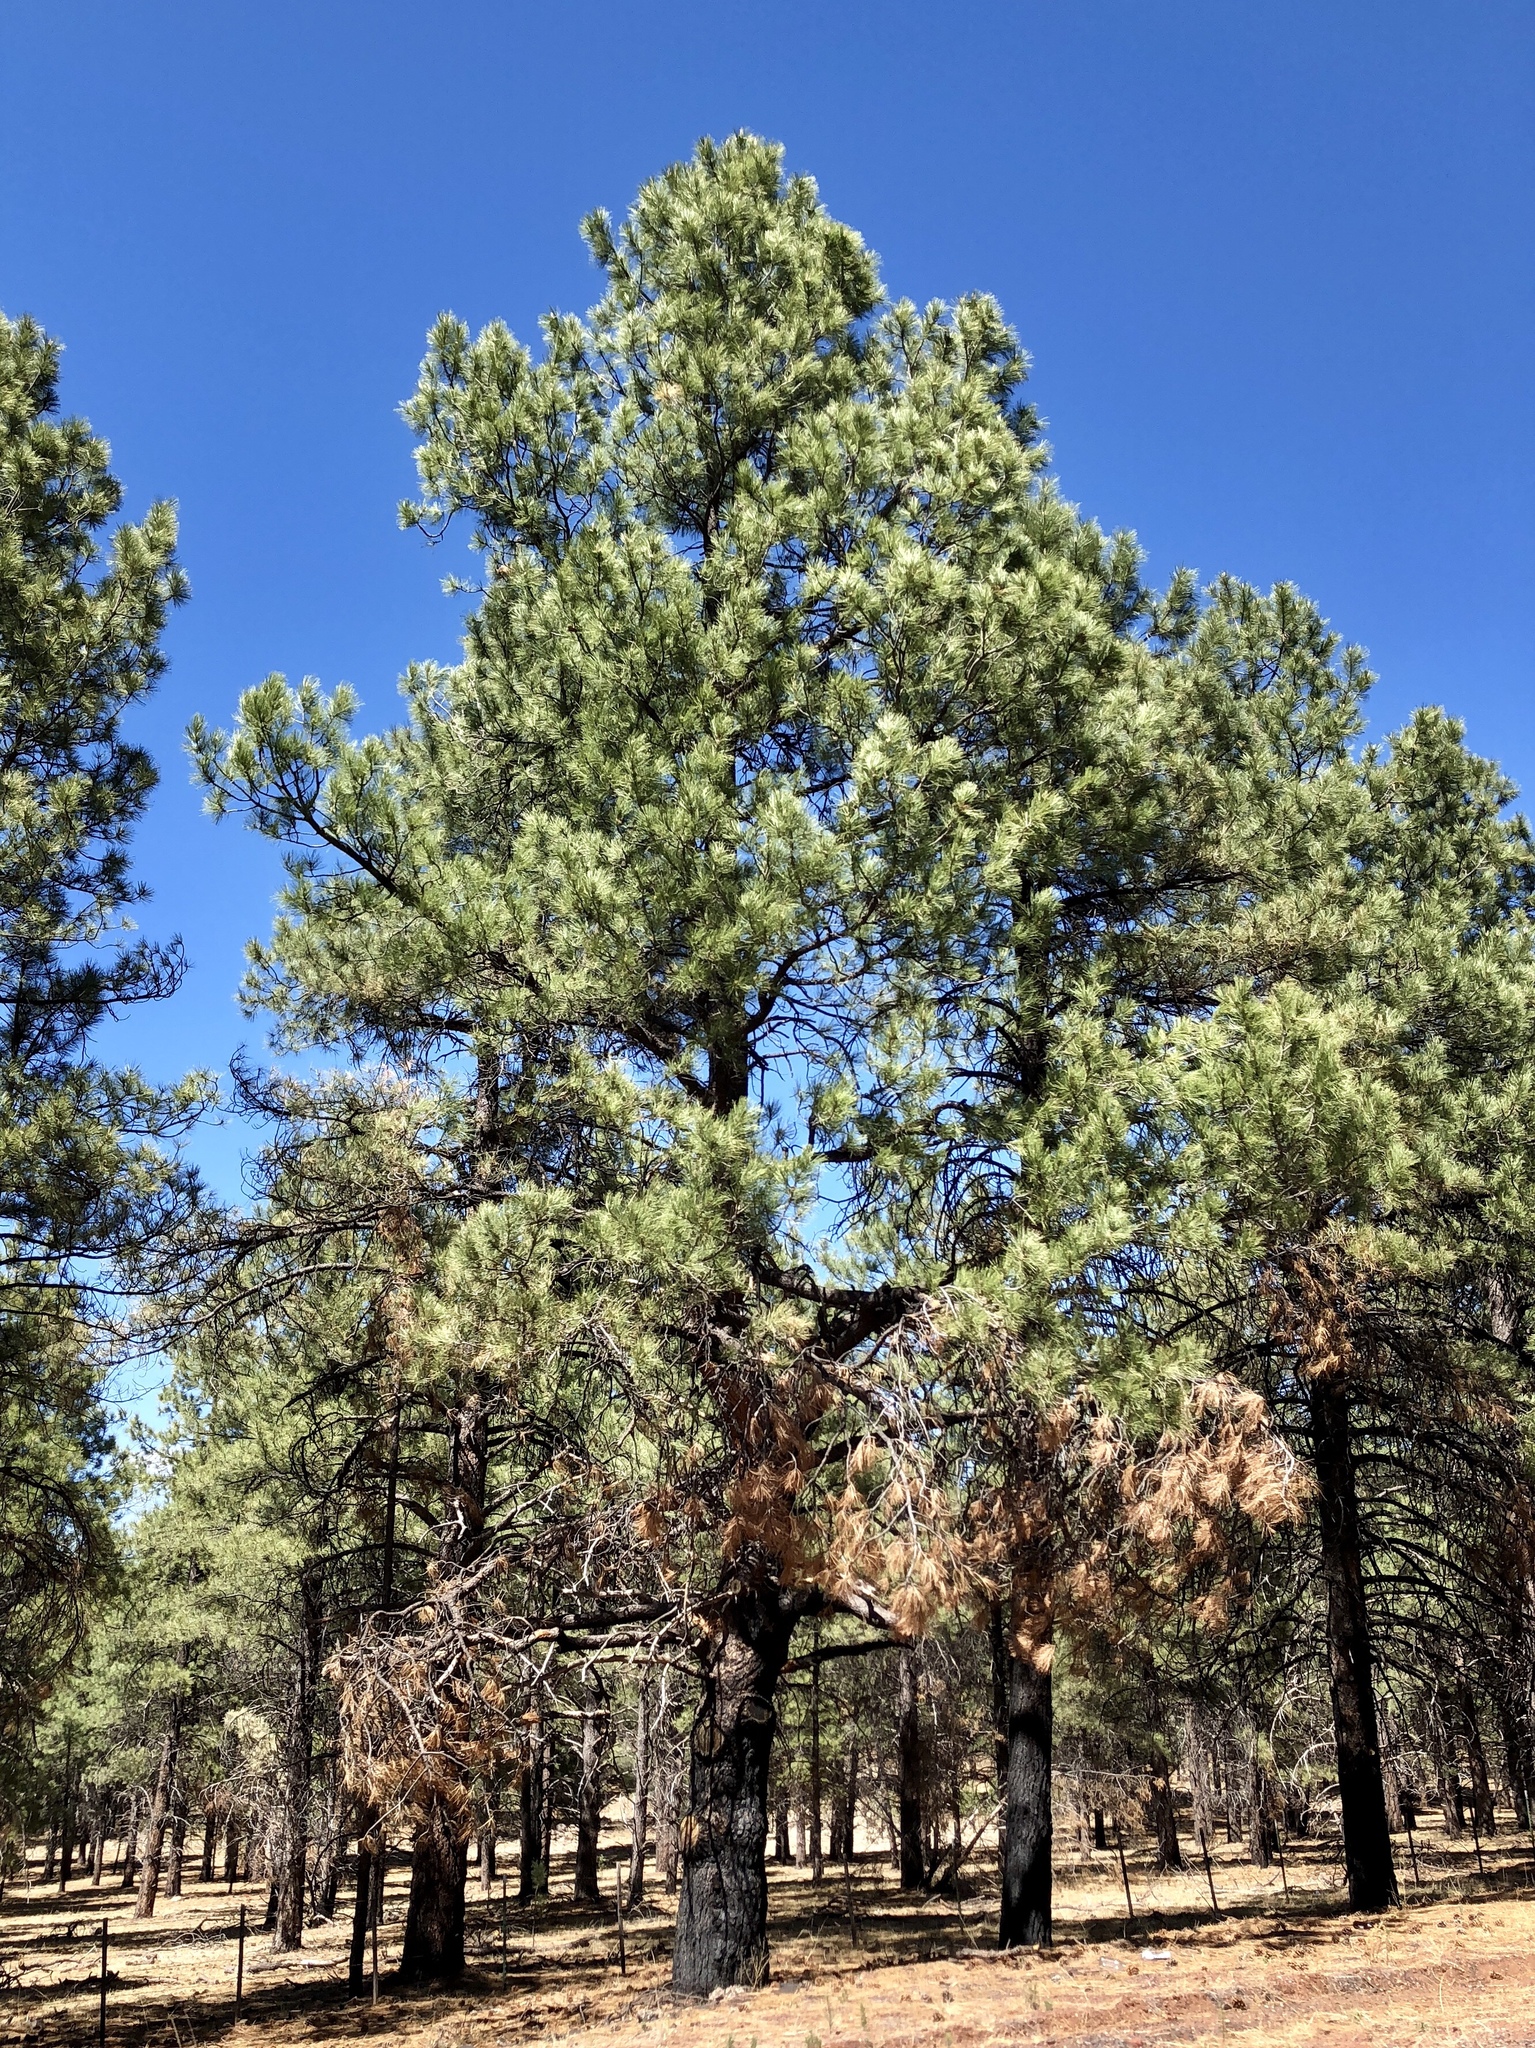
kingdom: Plantae
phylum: Tracheophyta
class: Pinopsida
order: Pinales
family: Pinaceae
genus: Pinus
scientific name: Pinus ponderosa
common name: Western yellow-pine
